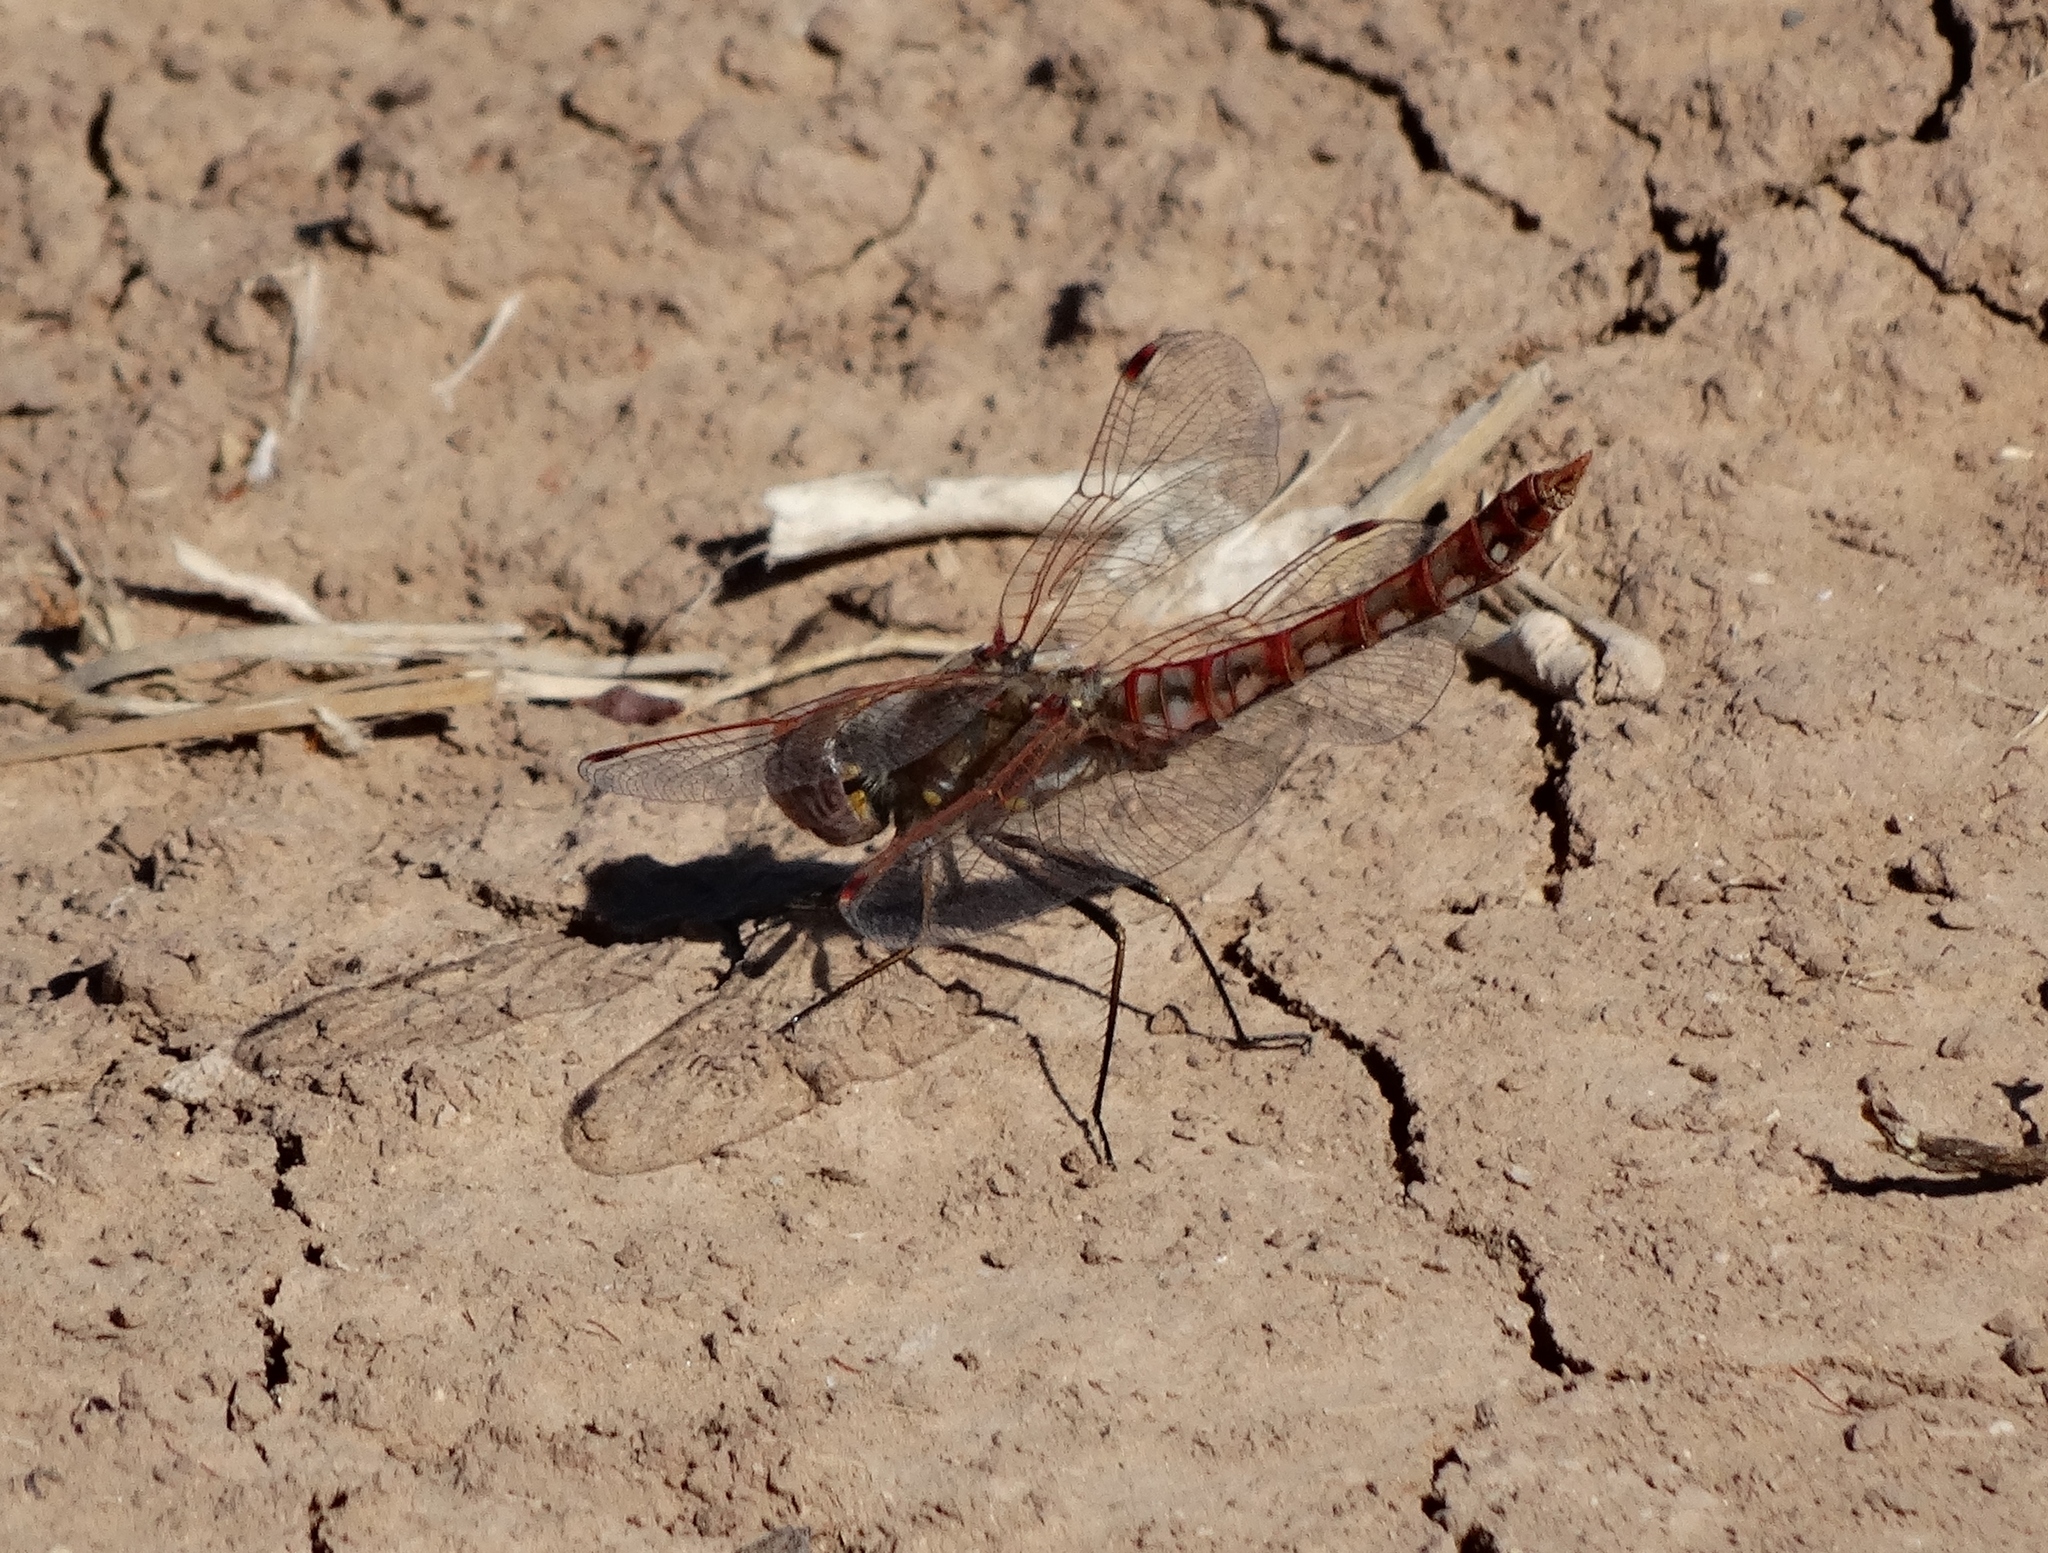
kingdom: Animalia
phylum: Arthropoda
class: Insecta
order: Odonata
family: Libellulidae
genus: Sympetrum
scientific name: Sympetrum corruptum
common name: Variegated meadowhawk
